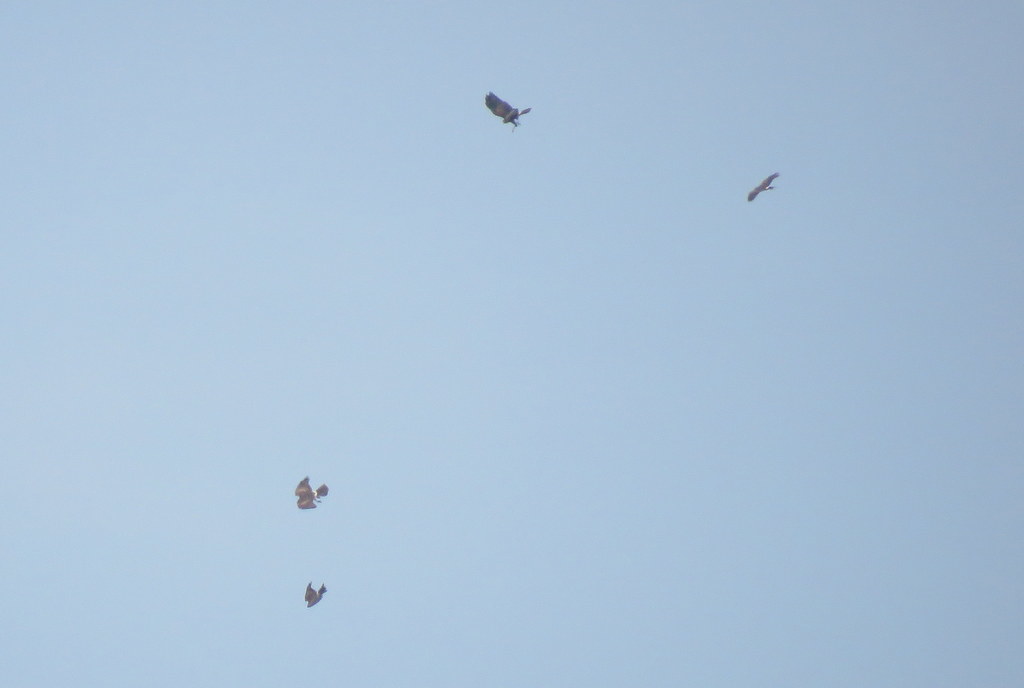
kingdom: Animalia
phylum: Chordata
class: Aves
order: Accipitriformes
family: Accipitridae
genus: Parabuteo
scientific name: Parabuteo unicinctus
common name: Harris's hawk
